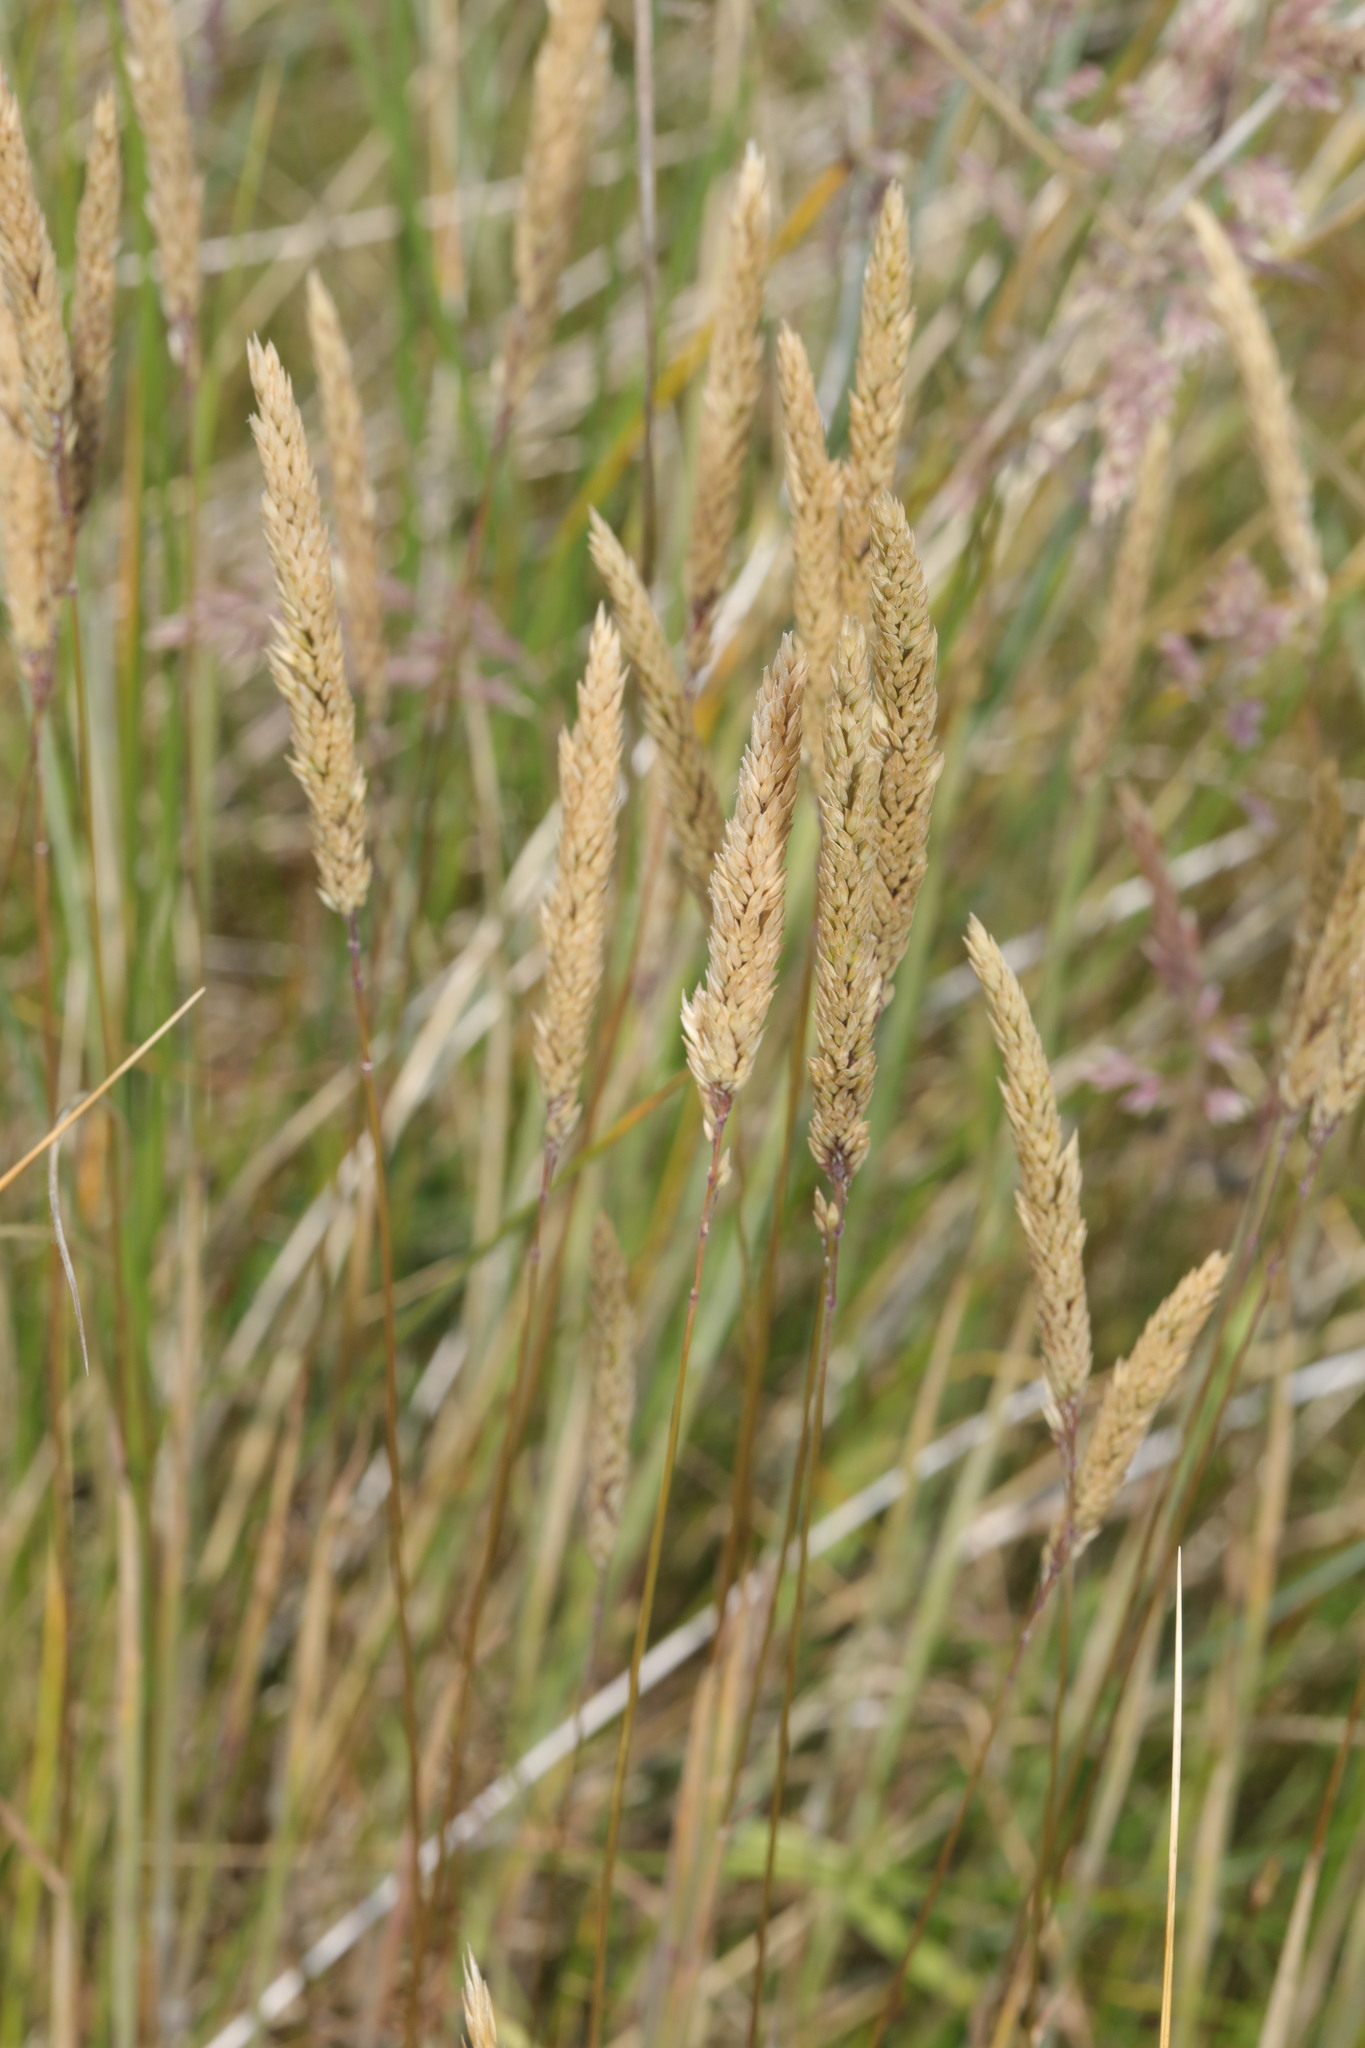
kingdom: Plantae
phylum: Tracheophyta
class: Liliopsida
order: Poales
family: Poaceae
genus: Holcus
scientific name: Holcus lanatus
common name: Yorkshire-fog
